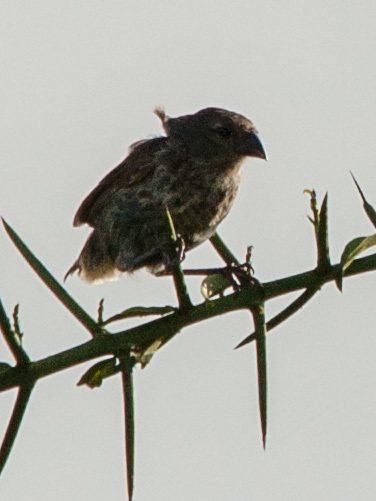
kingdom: Animalia
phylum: Chordata
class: Aves
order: Passeriformes
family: Thraupidae
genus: Geospiza
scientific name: Geospiza scandens
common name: Common cactus-finch
